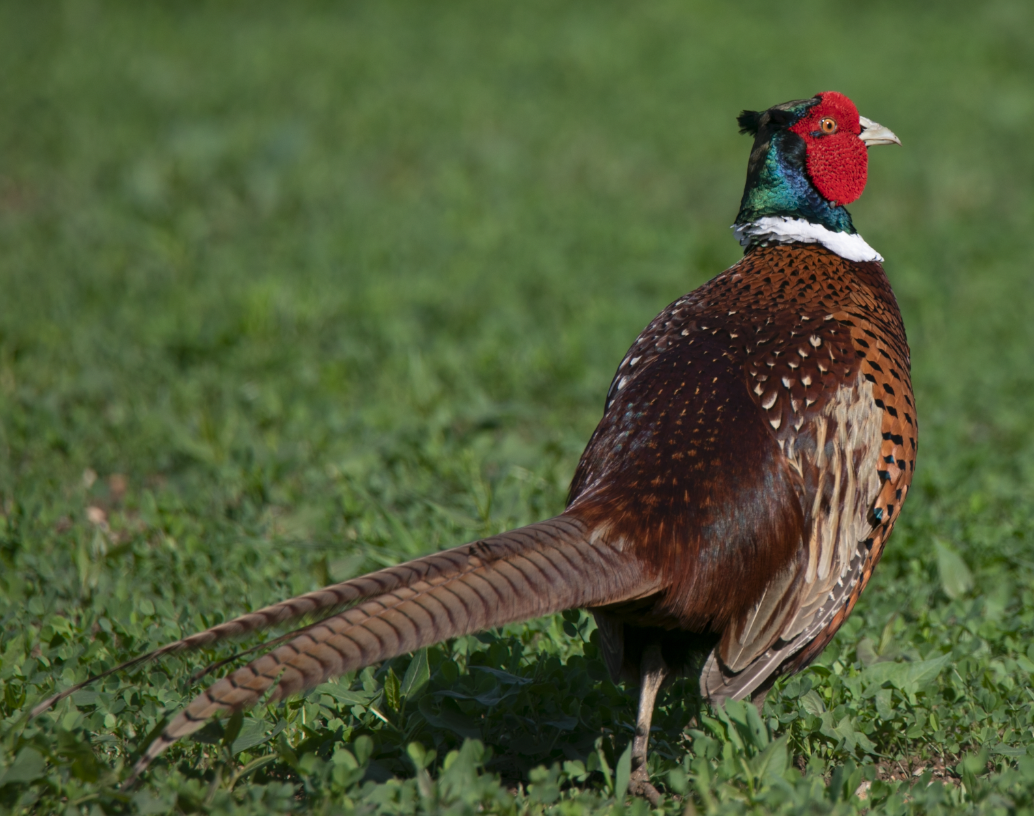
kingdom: Animalia
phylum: Chordata
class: Aves
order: Galliformes
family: Phasianidae
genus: Phasianus
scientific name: Phasianus colchicus
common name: Common pheasant
